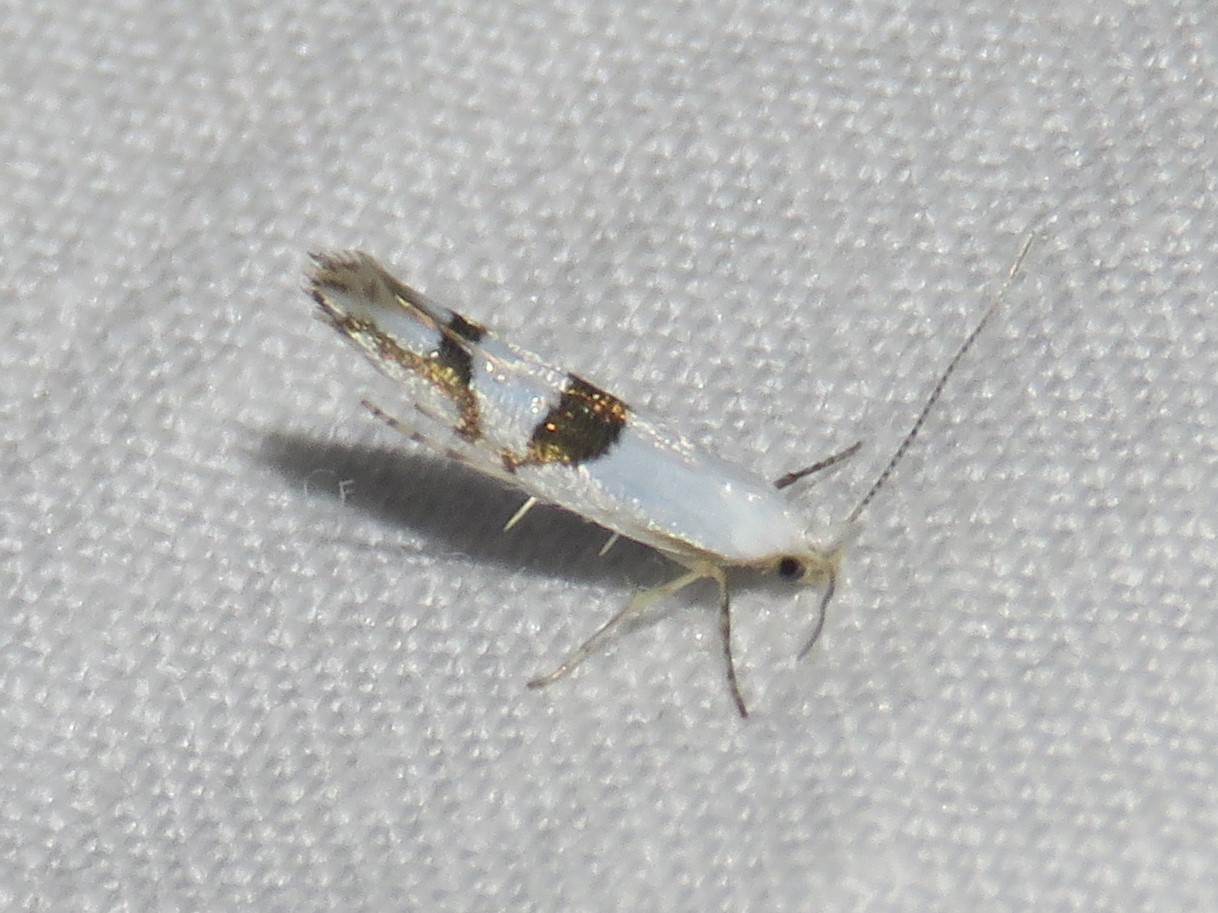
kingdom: Animalia
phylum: Arthropoda
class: Insecta
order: Lepidoptera
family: Argyresthiidae
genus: Argyresthia
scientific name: Argyresthia oreasella
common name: Cherry shoot borer moth
